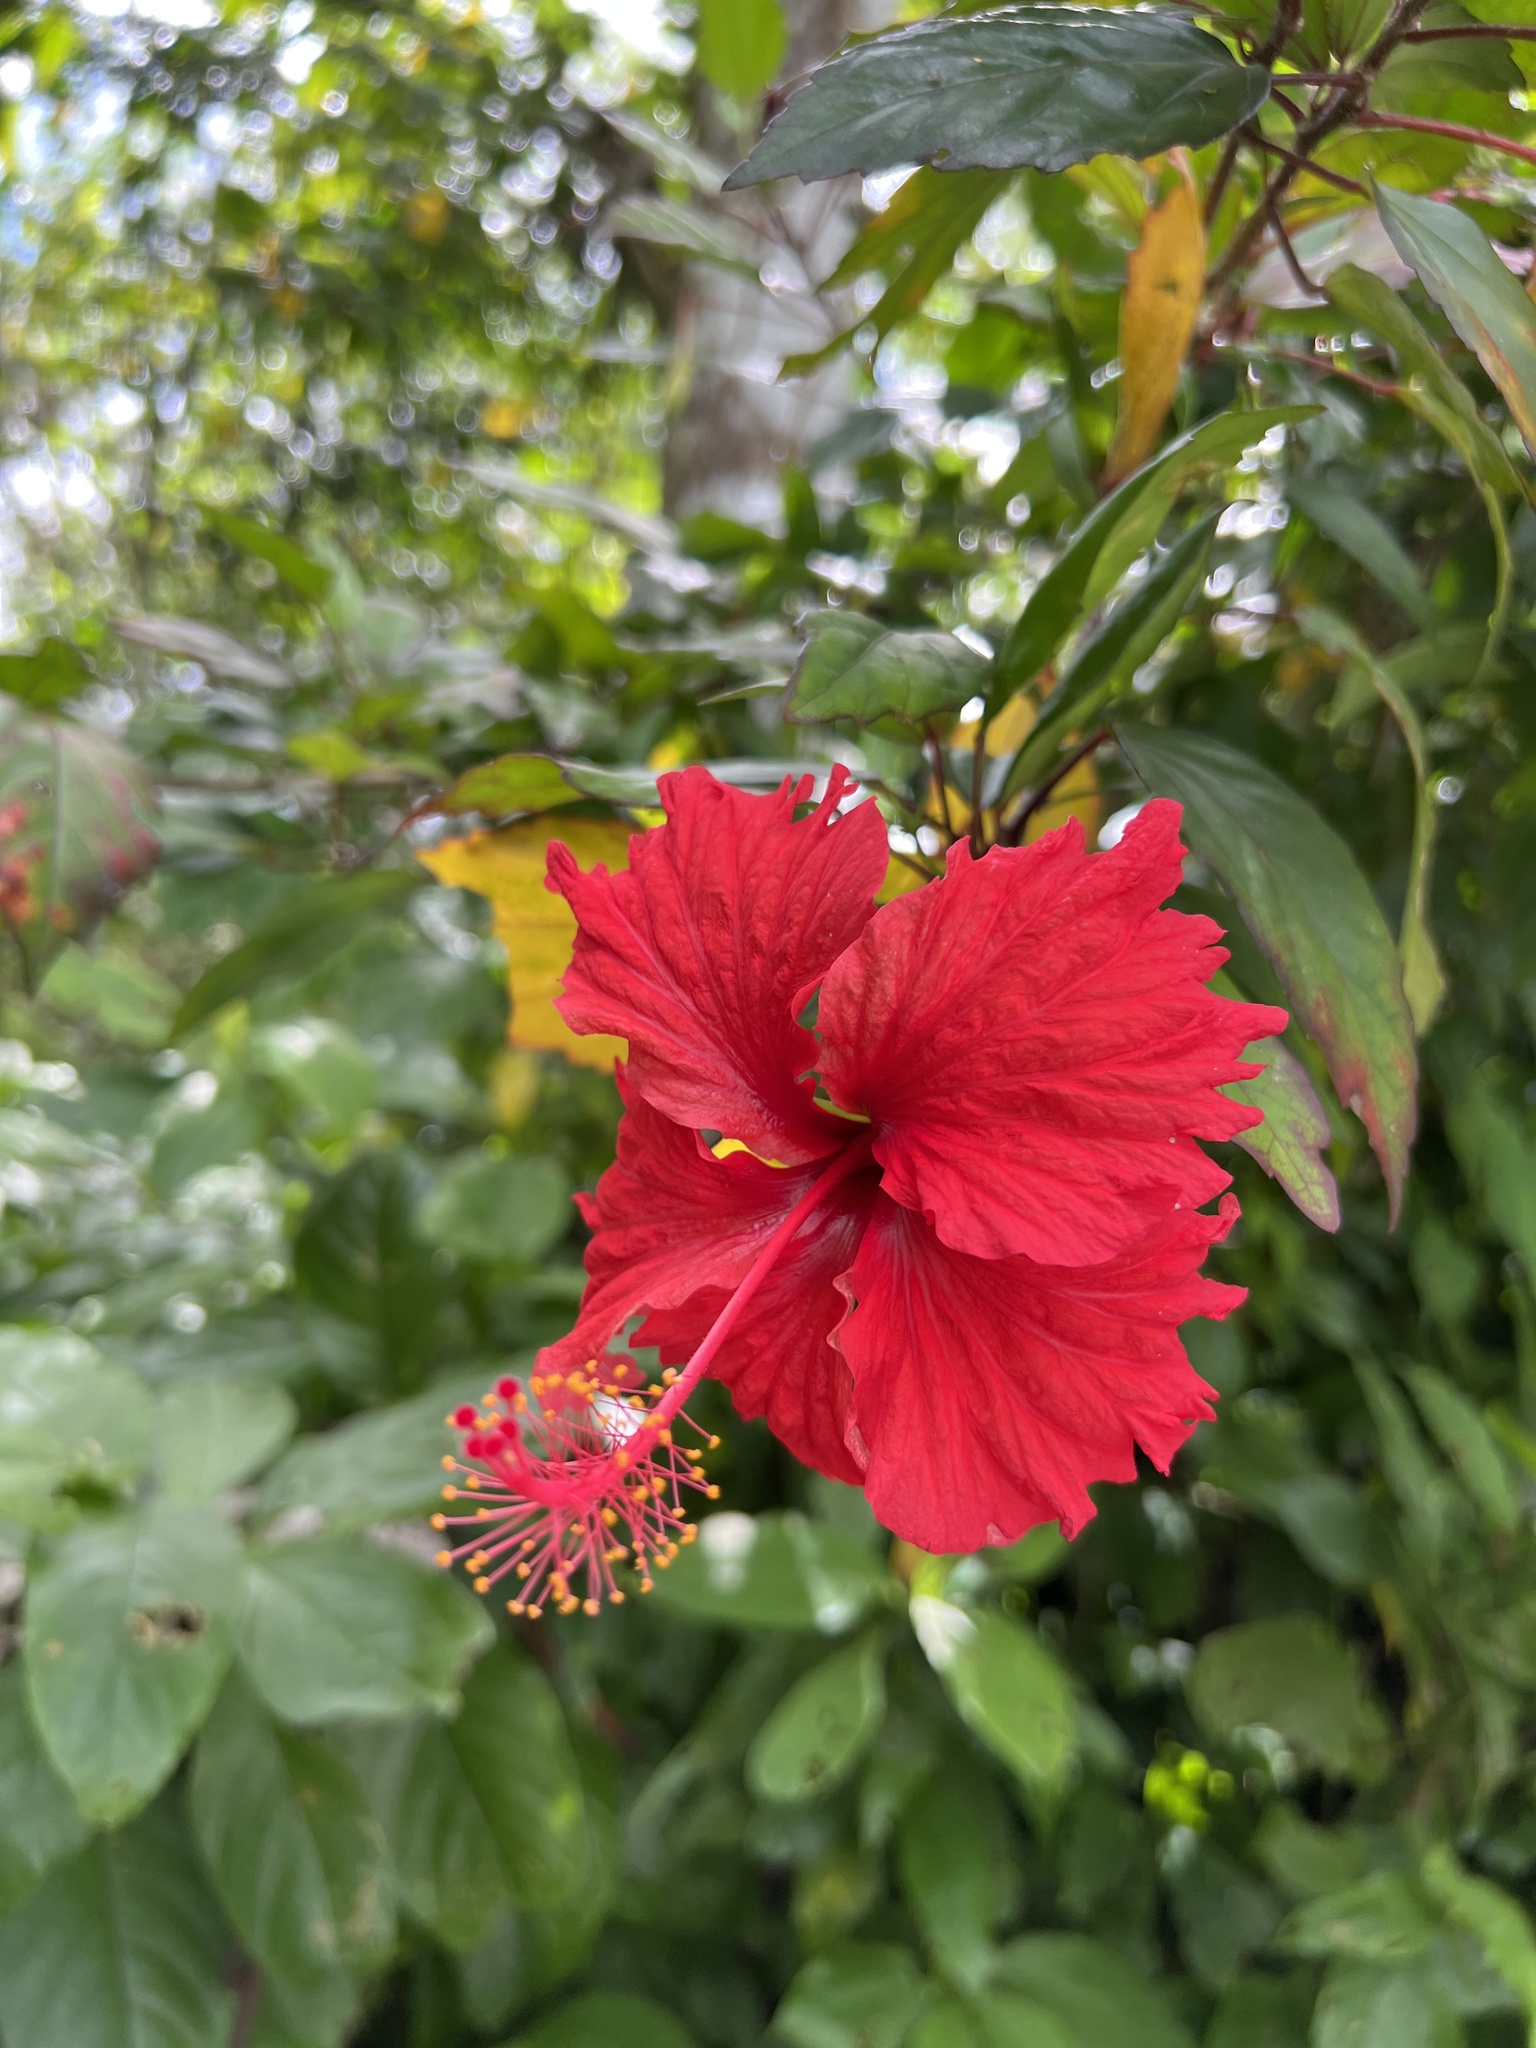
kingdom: Plantae
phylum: Tracheophyta
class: Magnoliopsida
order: Malvales
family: Malvaceae
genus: Hibiscus
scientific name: Hibiscus archeri
